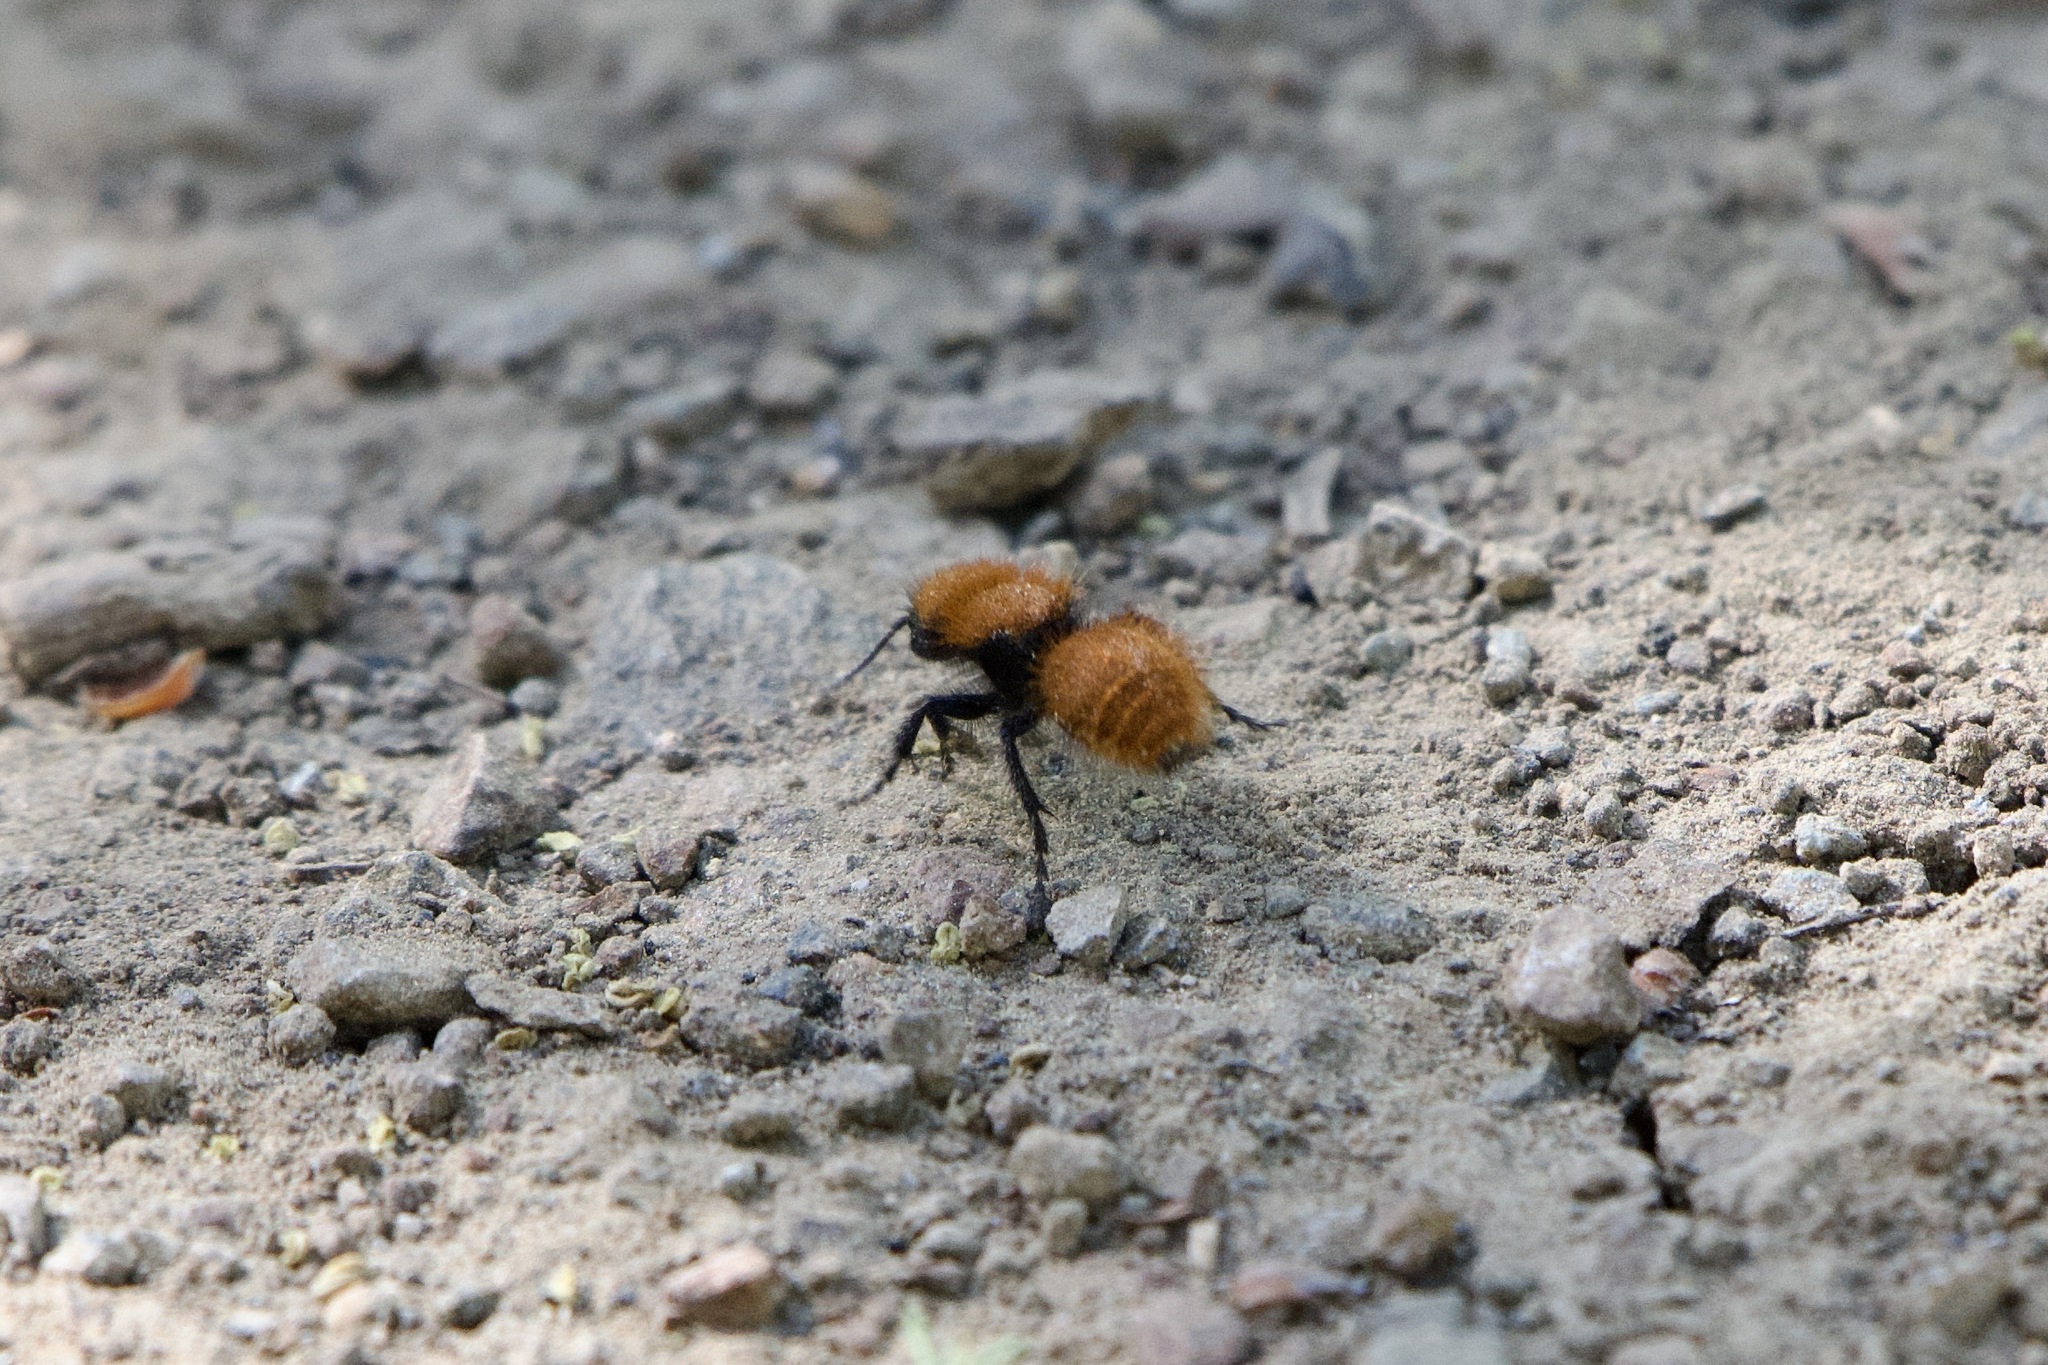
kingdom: Animalia
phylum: Arthropoda
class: Insecta
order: Hymenoptera
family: Mutillidae
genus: Dasymutilla
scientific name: Dasymutilla
